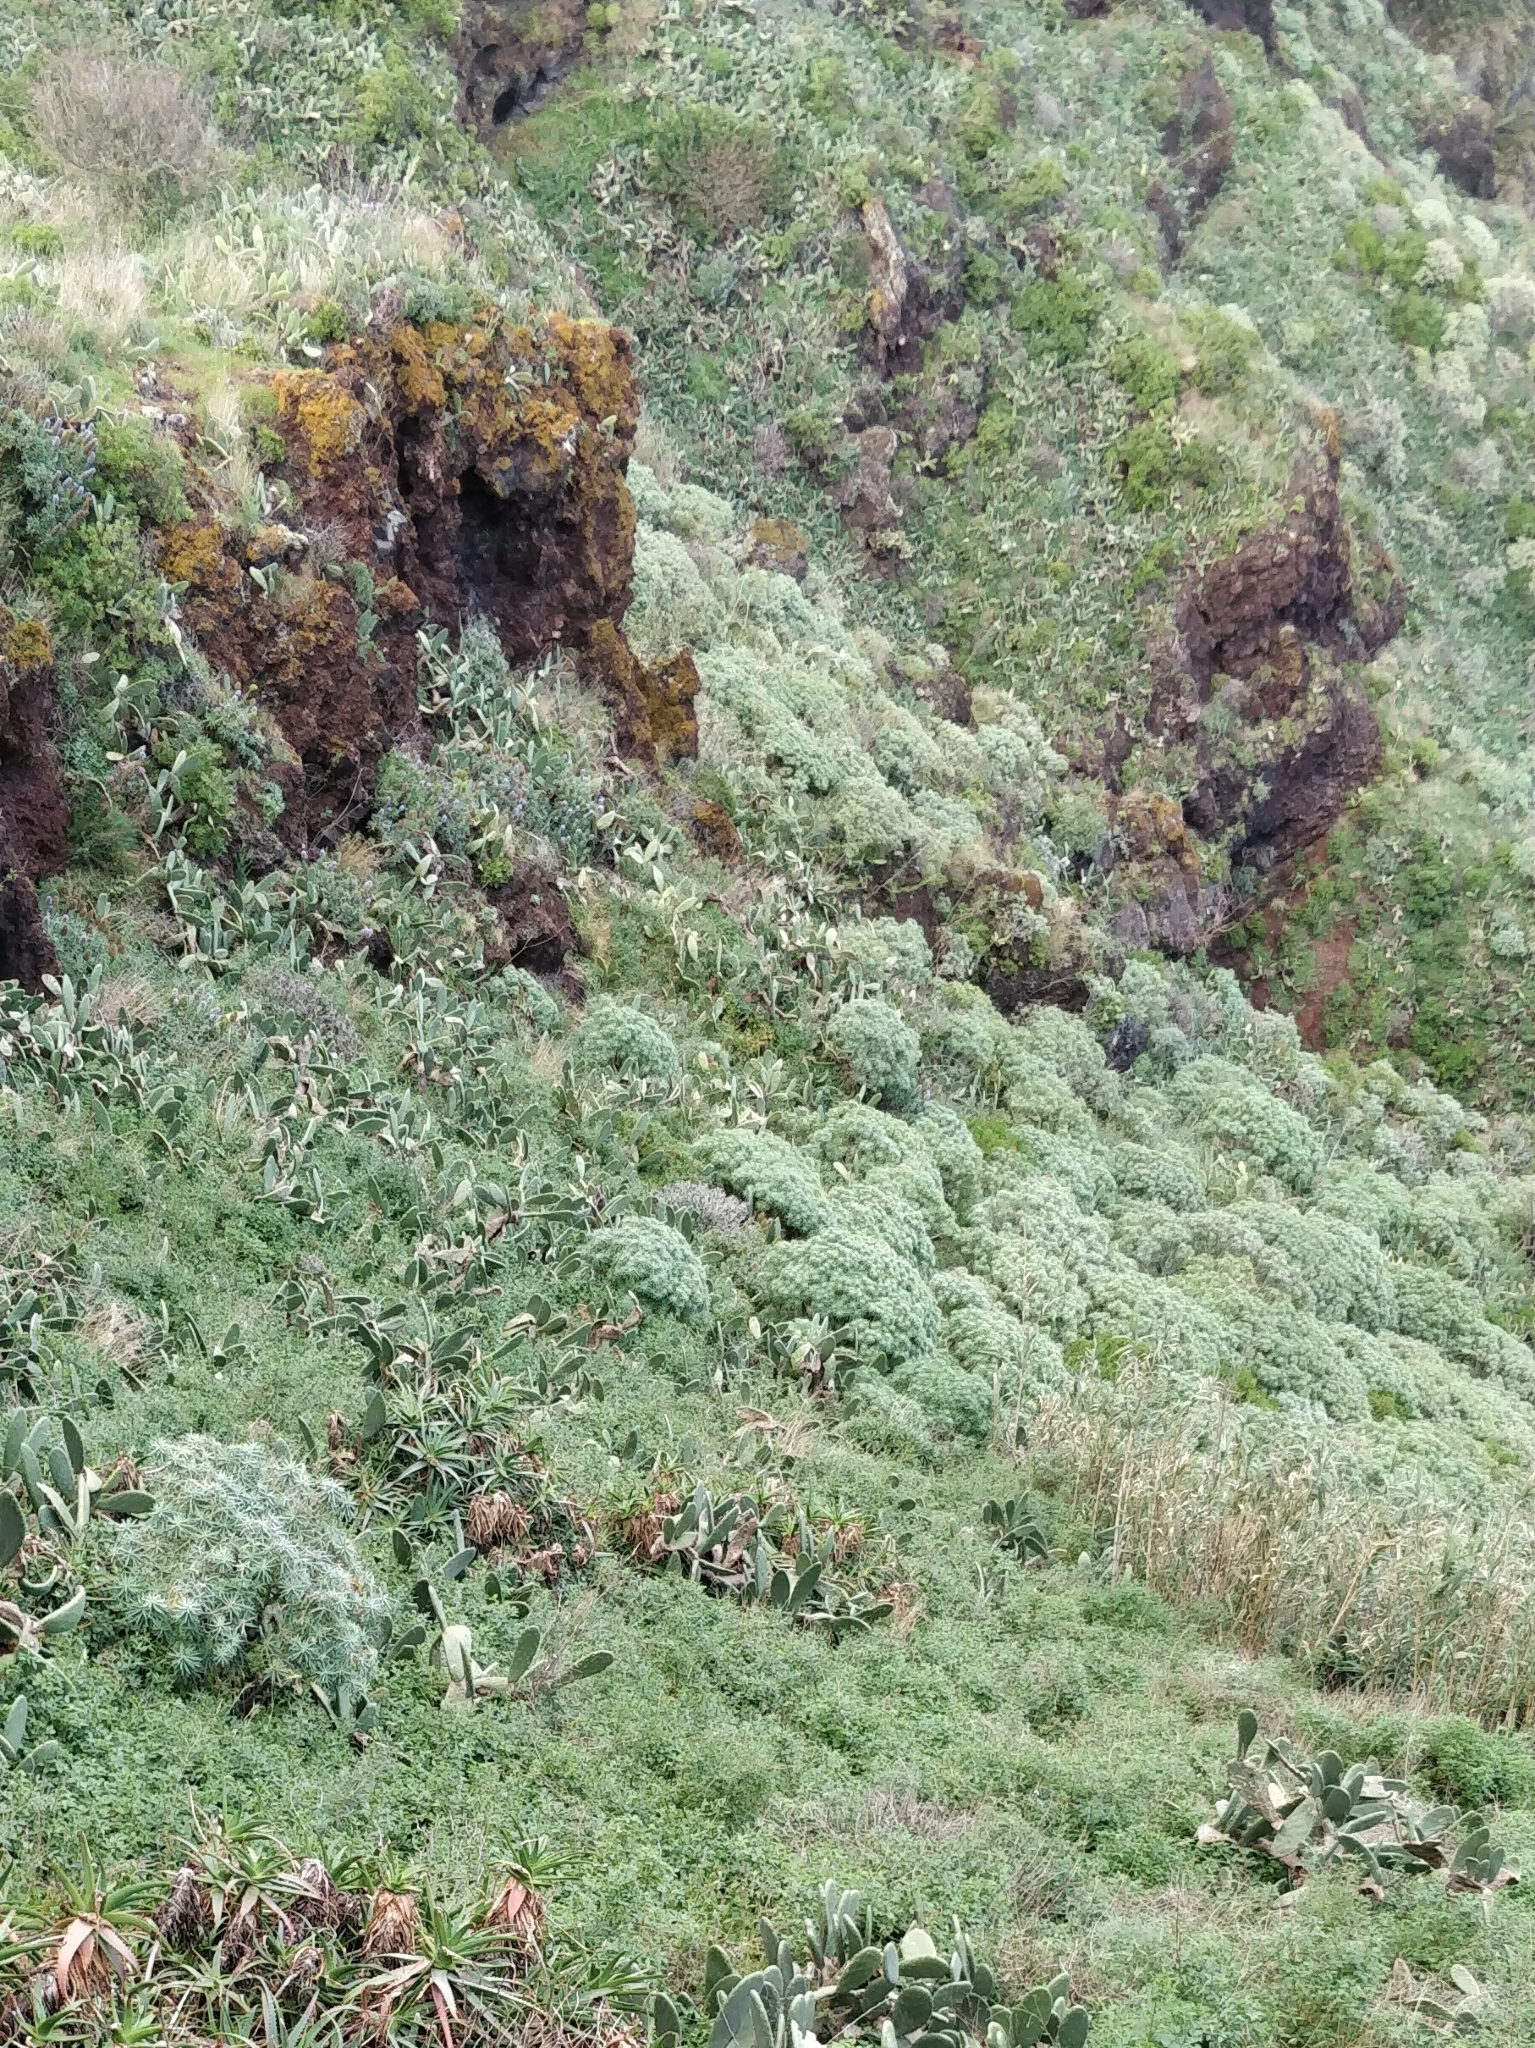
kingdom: Plantae
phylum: Tracheophyta
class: Magnoliopsida
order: Malpighiales
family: Euphorbiaceae
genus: Euphorbia
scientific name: Euphorbia piscatoria
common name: Fish-stunning spurge
